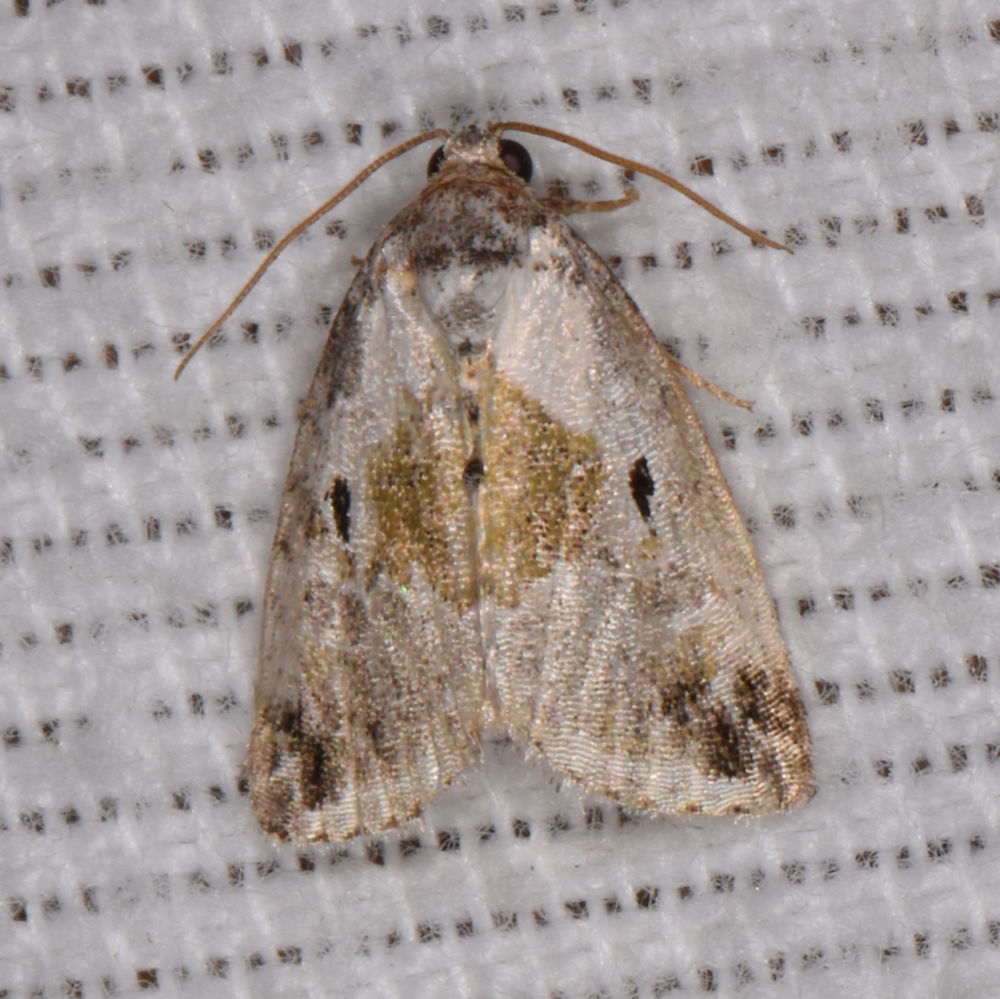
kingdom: Animalia
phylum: Arthropoda
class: Insecta
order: Lepidoptera
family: Noctuidae
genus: Maliattha
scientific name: Maliattha synochitis
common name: Black-dotted glyph
